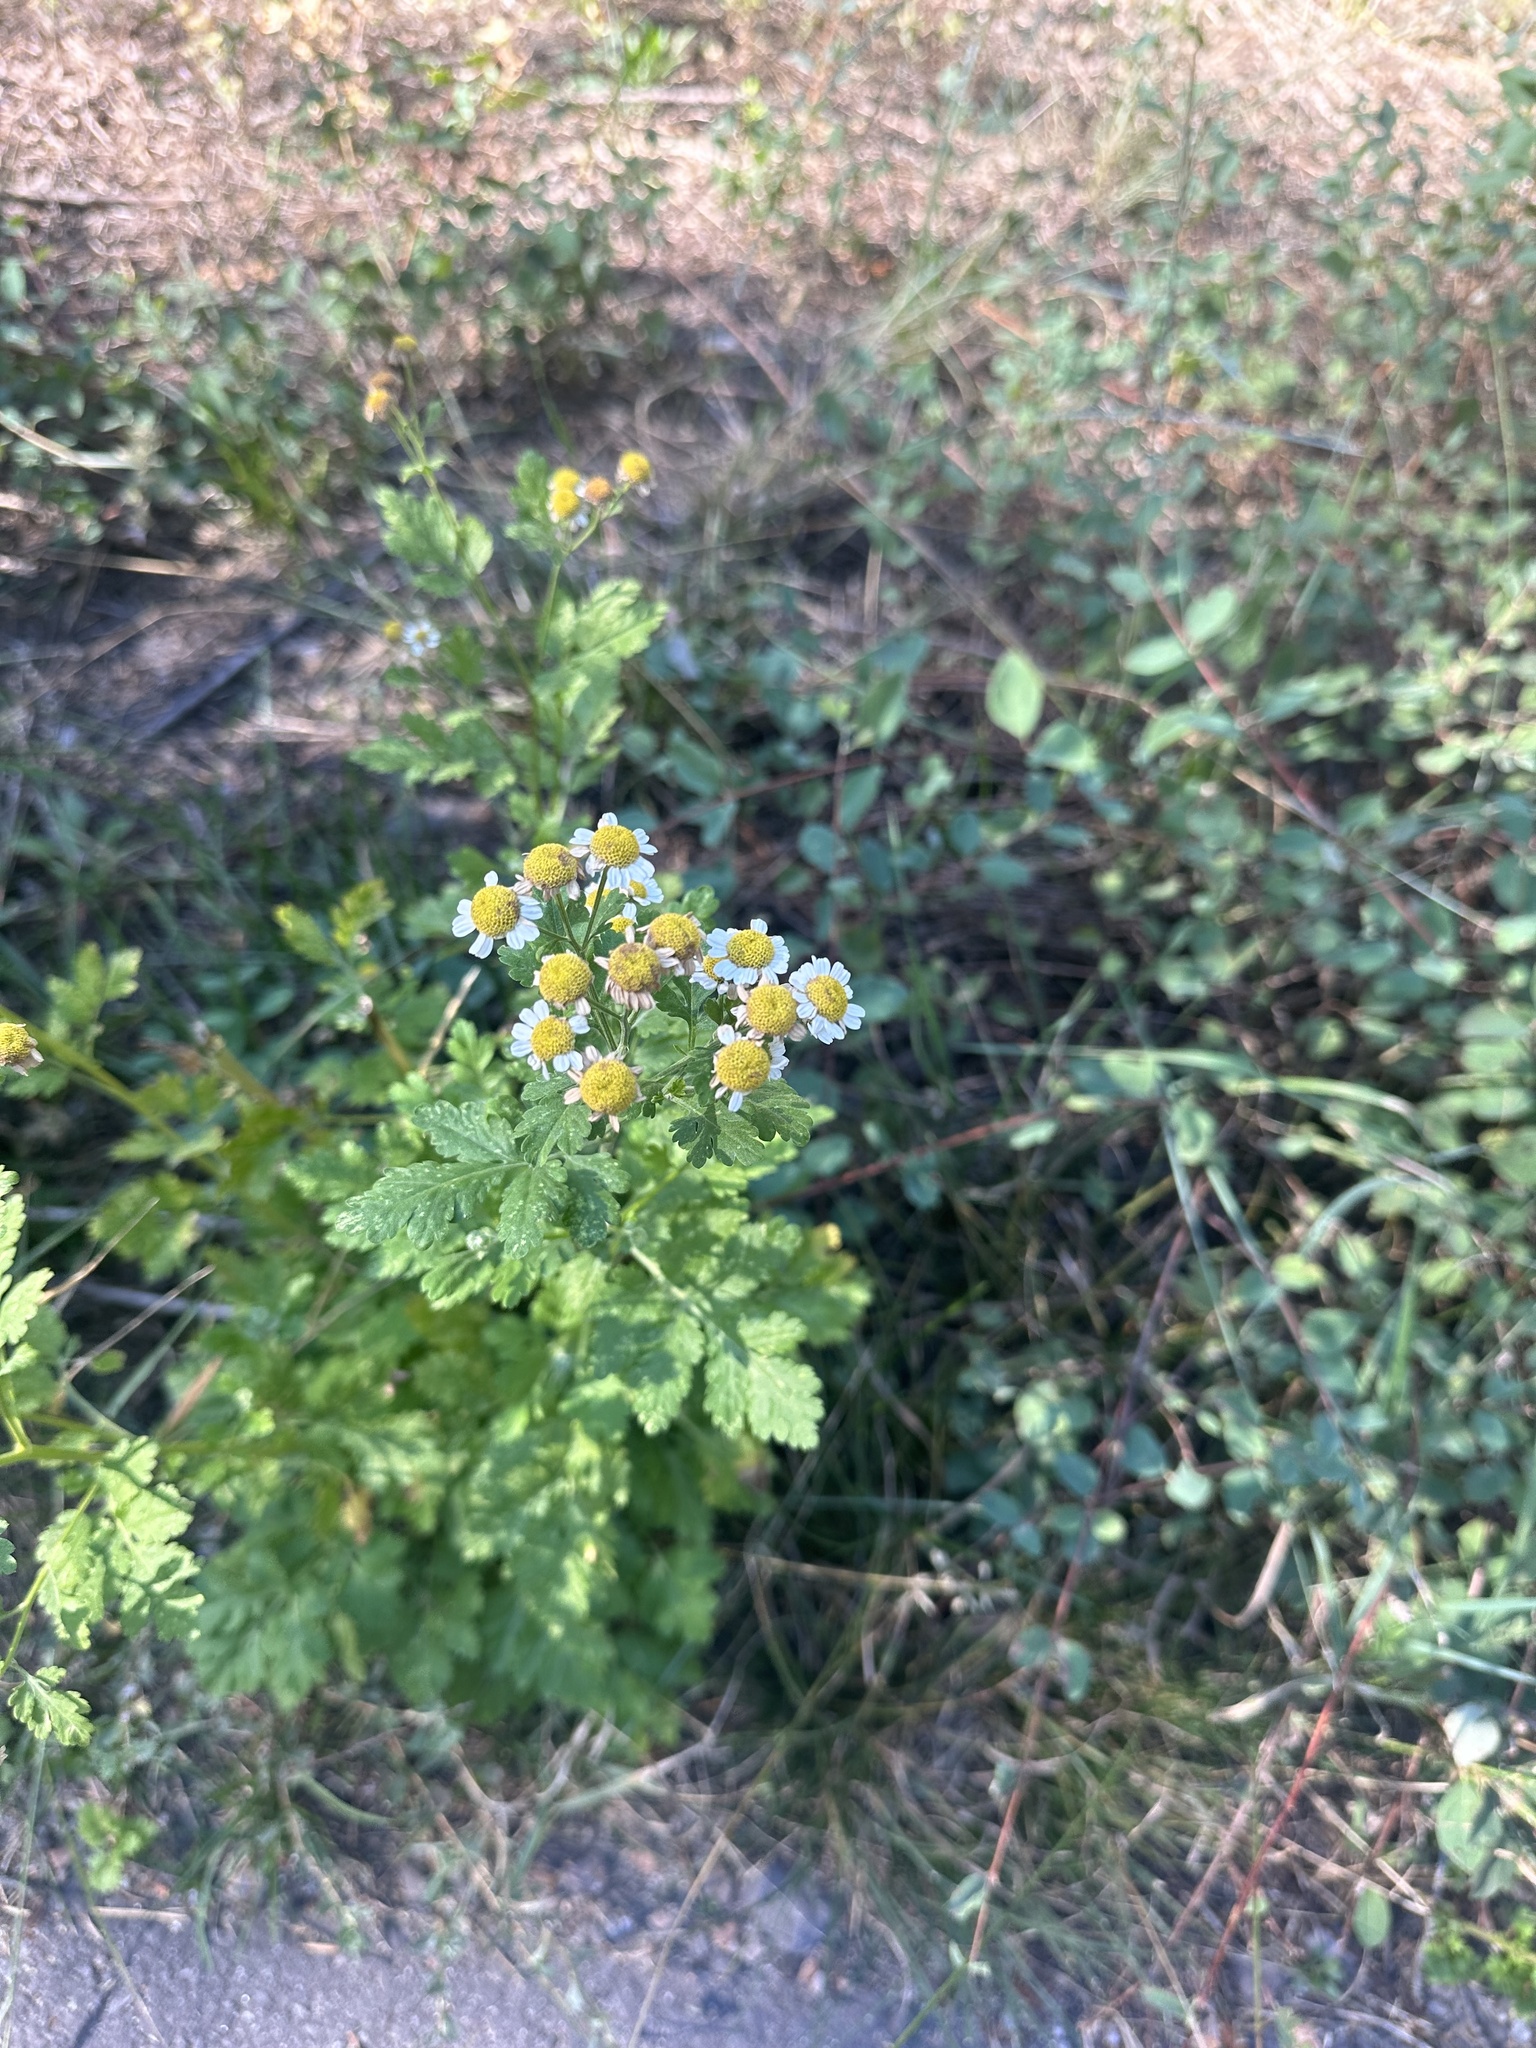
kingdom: Plantae
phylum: Tracheophyta
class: Magnoliopsida
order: Asterales
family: Asteraceae
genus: Tanacetum
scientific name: Tanacetum parthenium
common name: Feverfew
